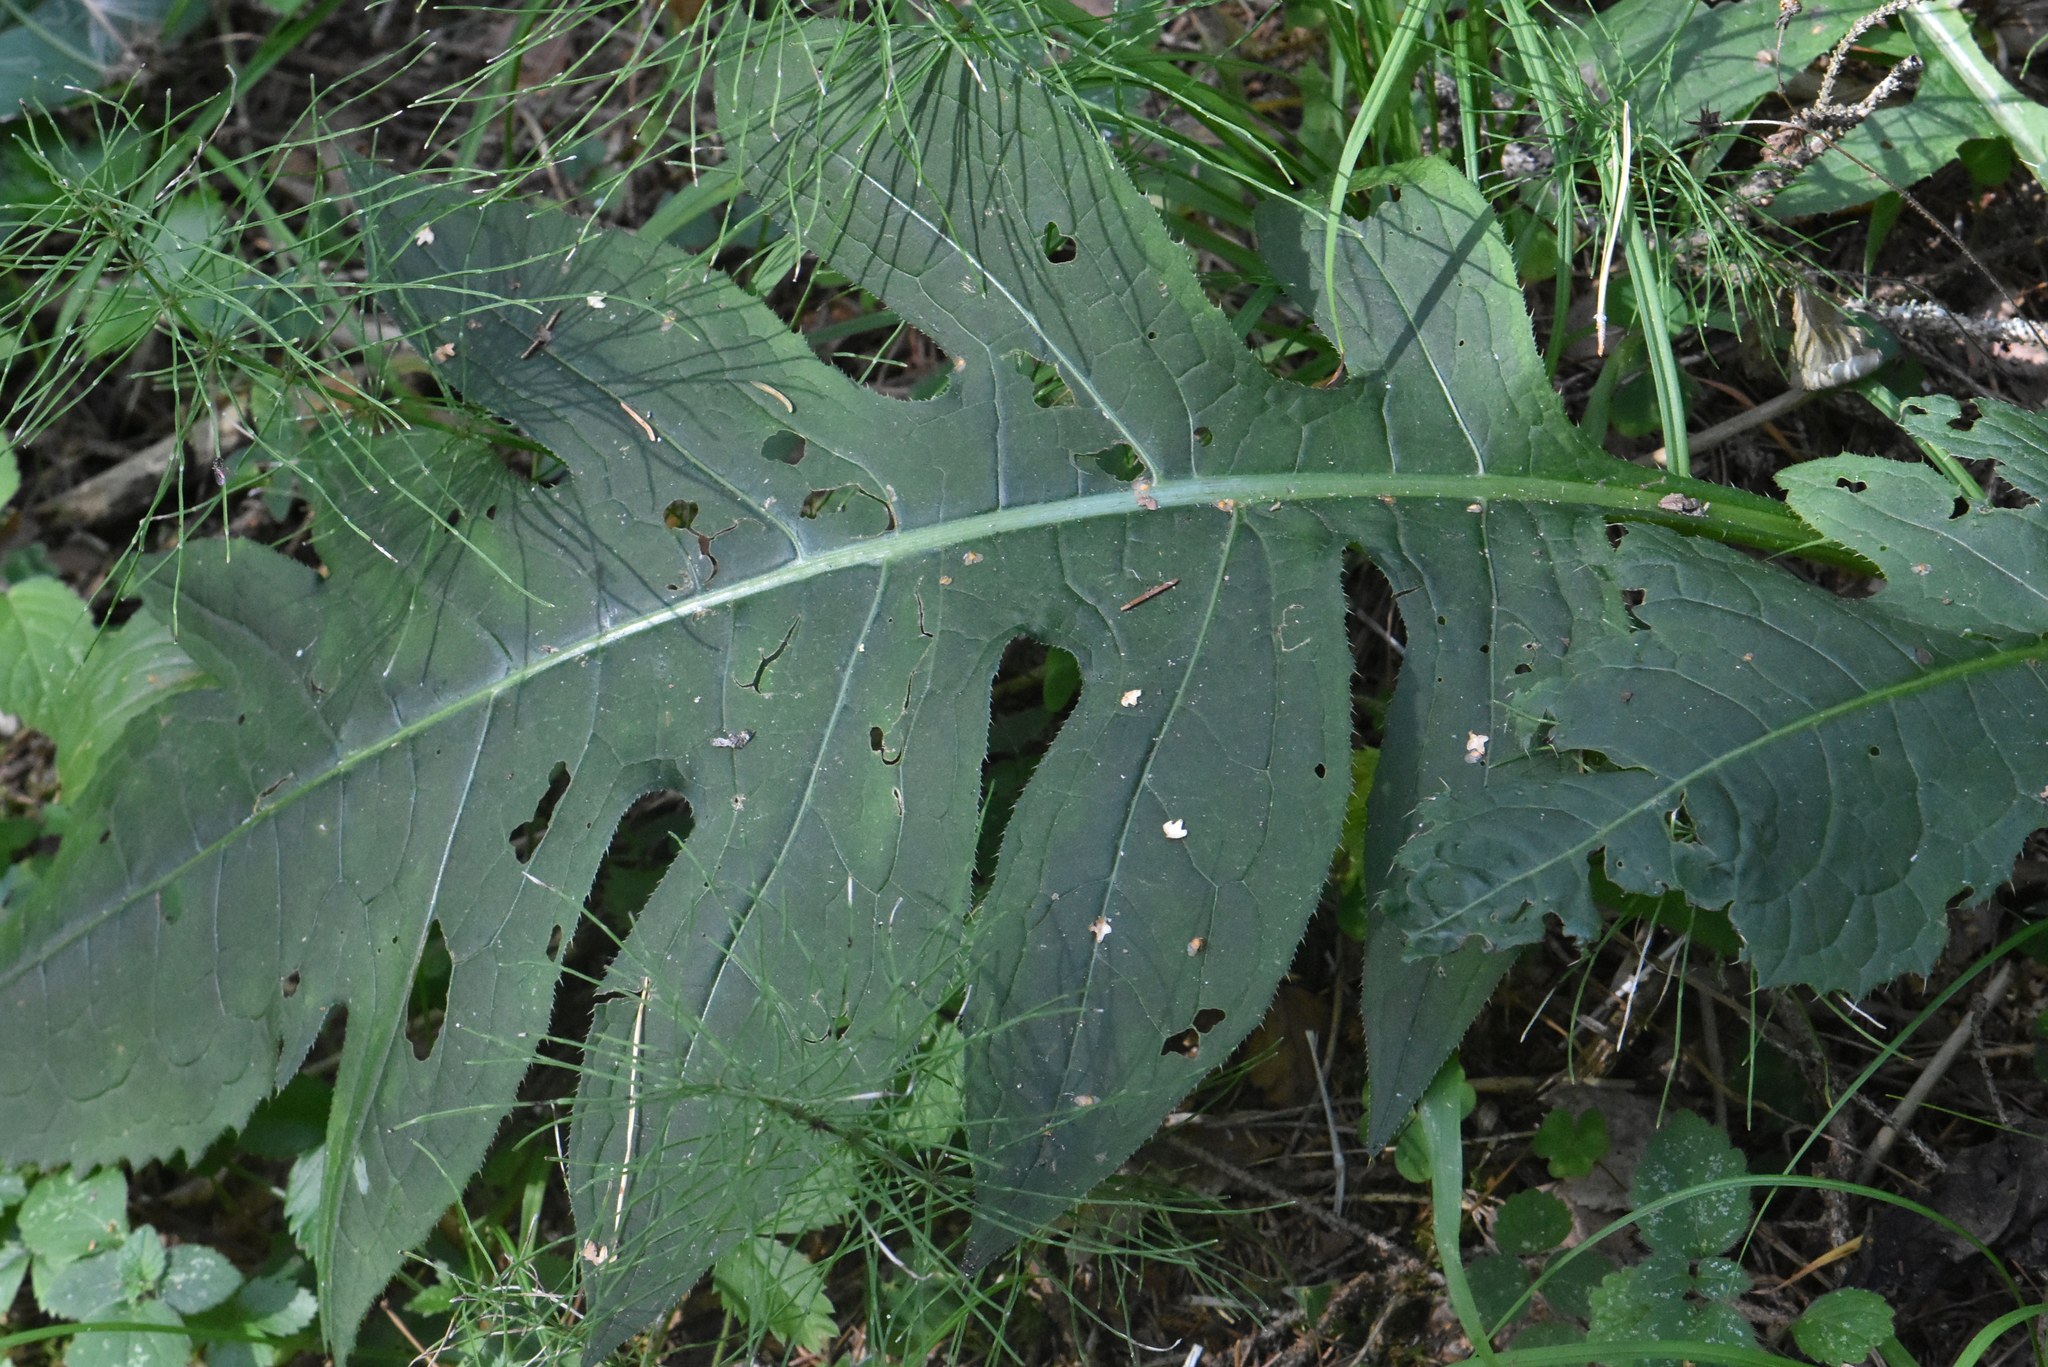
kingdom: Plantae
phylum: Tracheophyta
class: Magnoliopsida
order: Asterales
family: Asteraceae
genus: Cirsium
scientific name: Cirsium oleraceum
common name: Cabbage thistle
